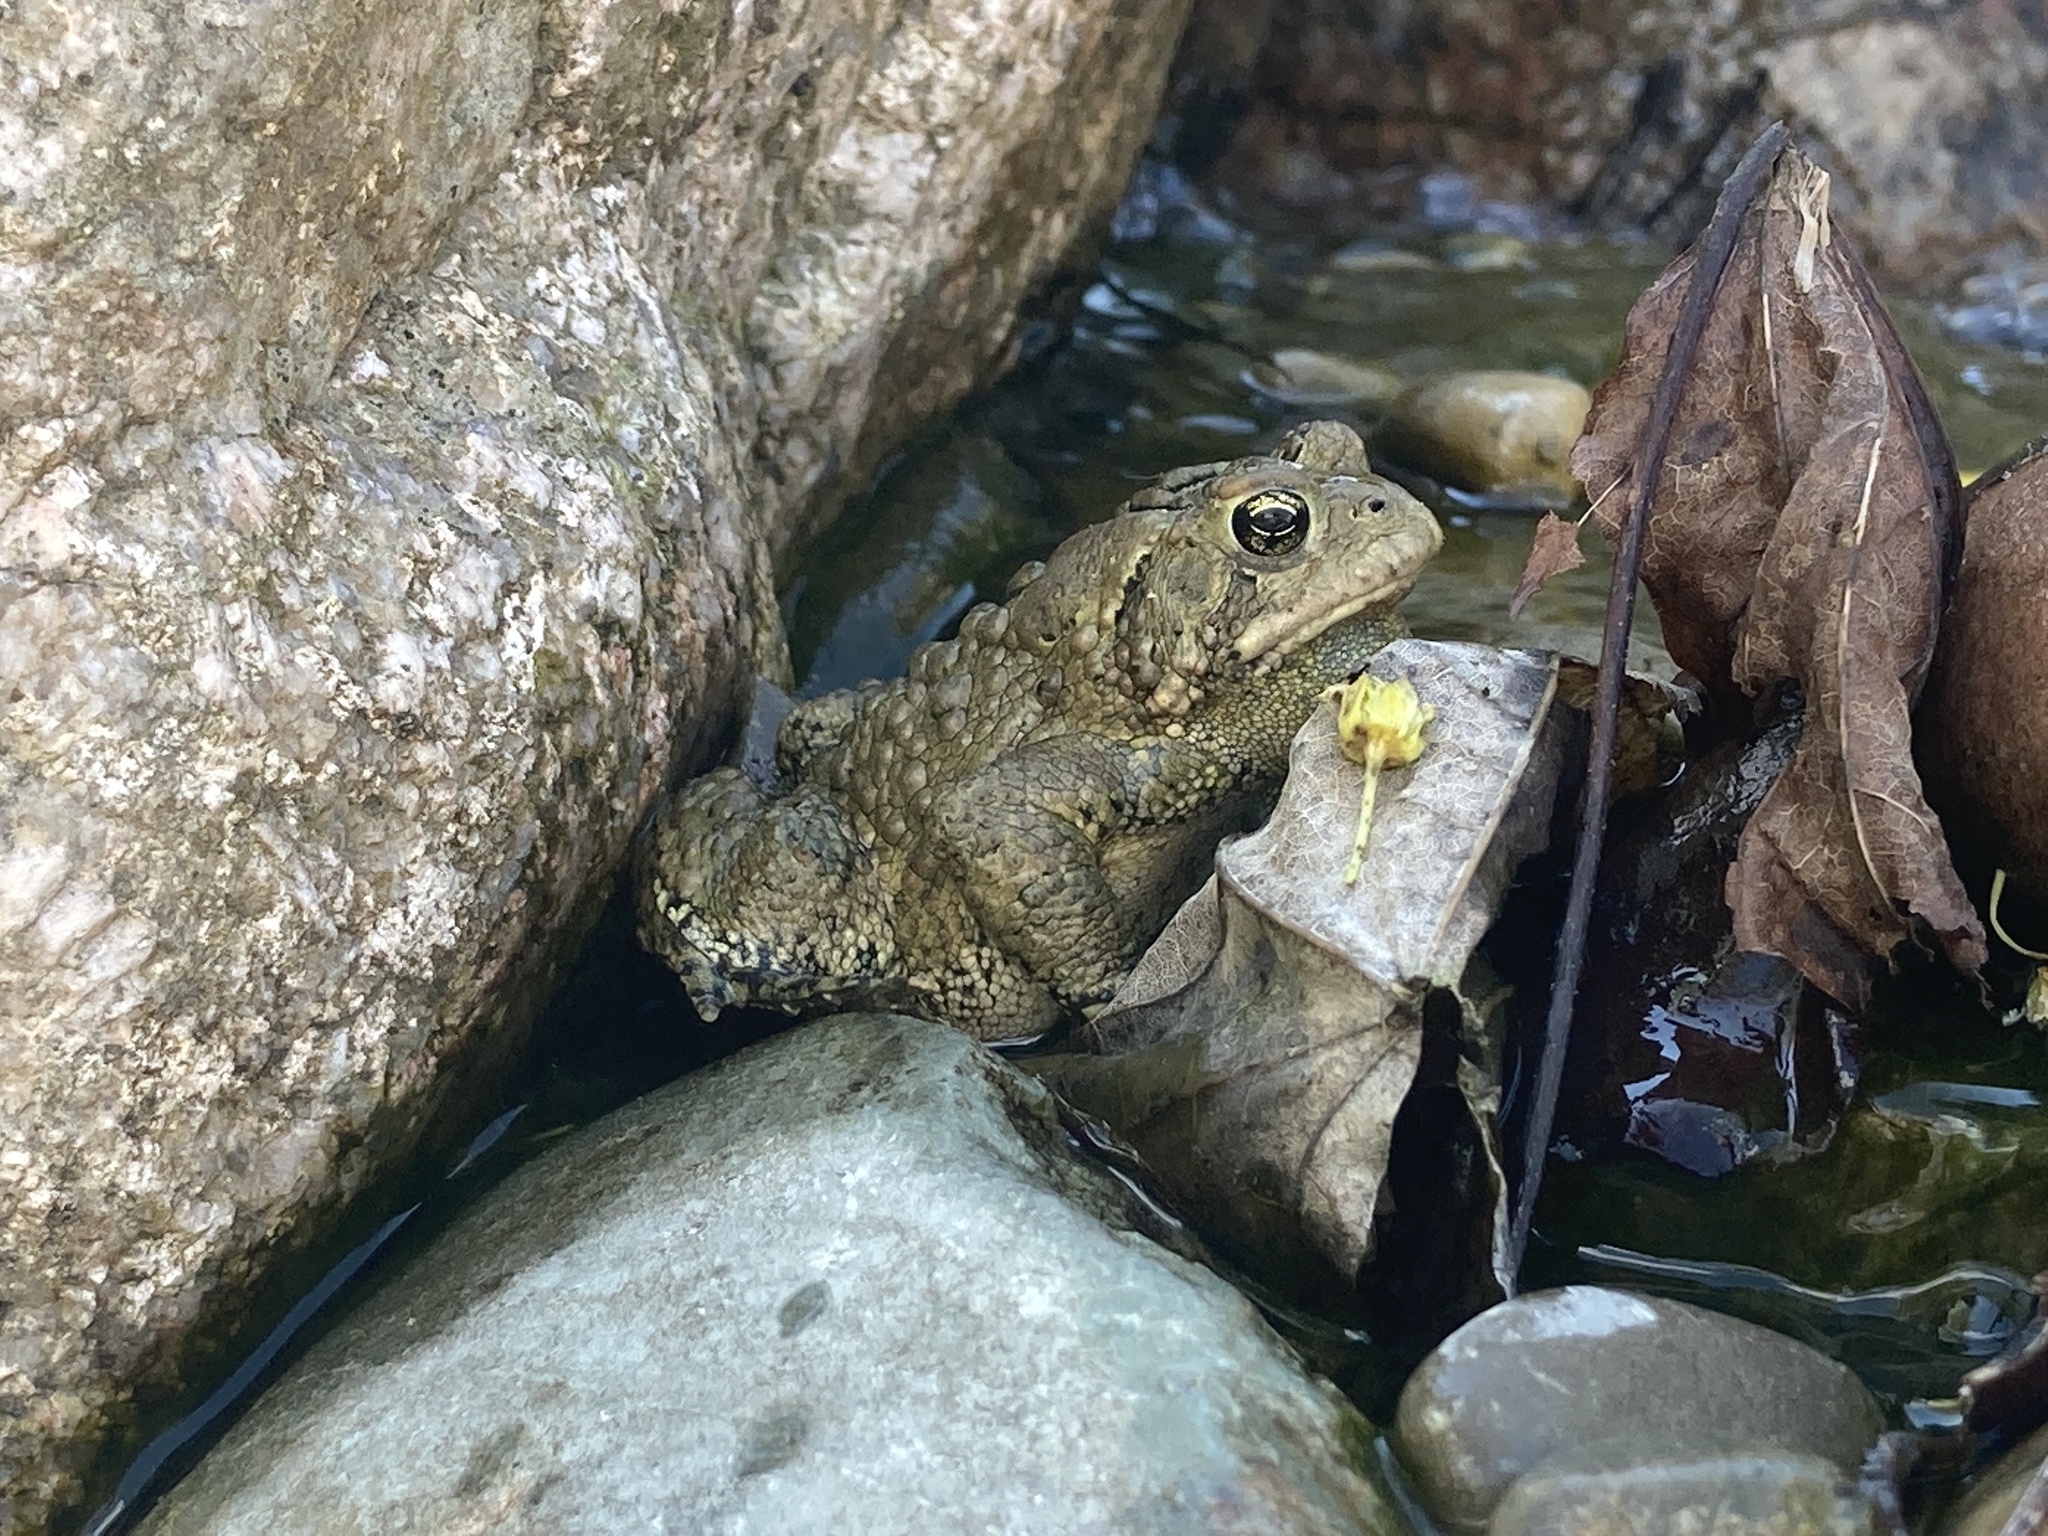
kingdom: Animalia
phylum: Chordata
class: Amphibia
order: Anura
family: Bufonidae
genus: Anaxyrus
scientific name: Anaxyrus americanus
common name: American toad
